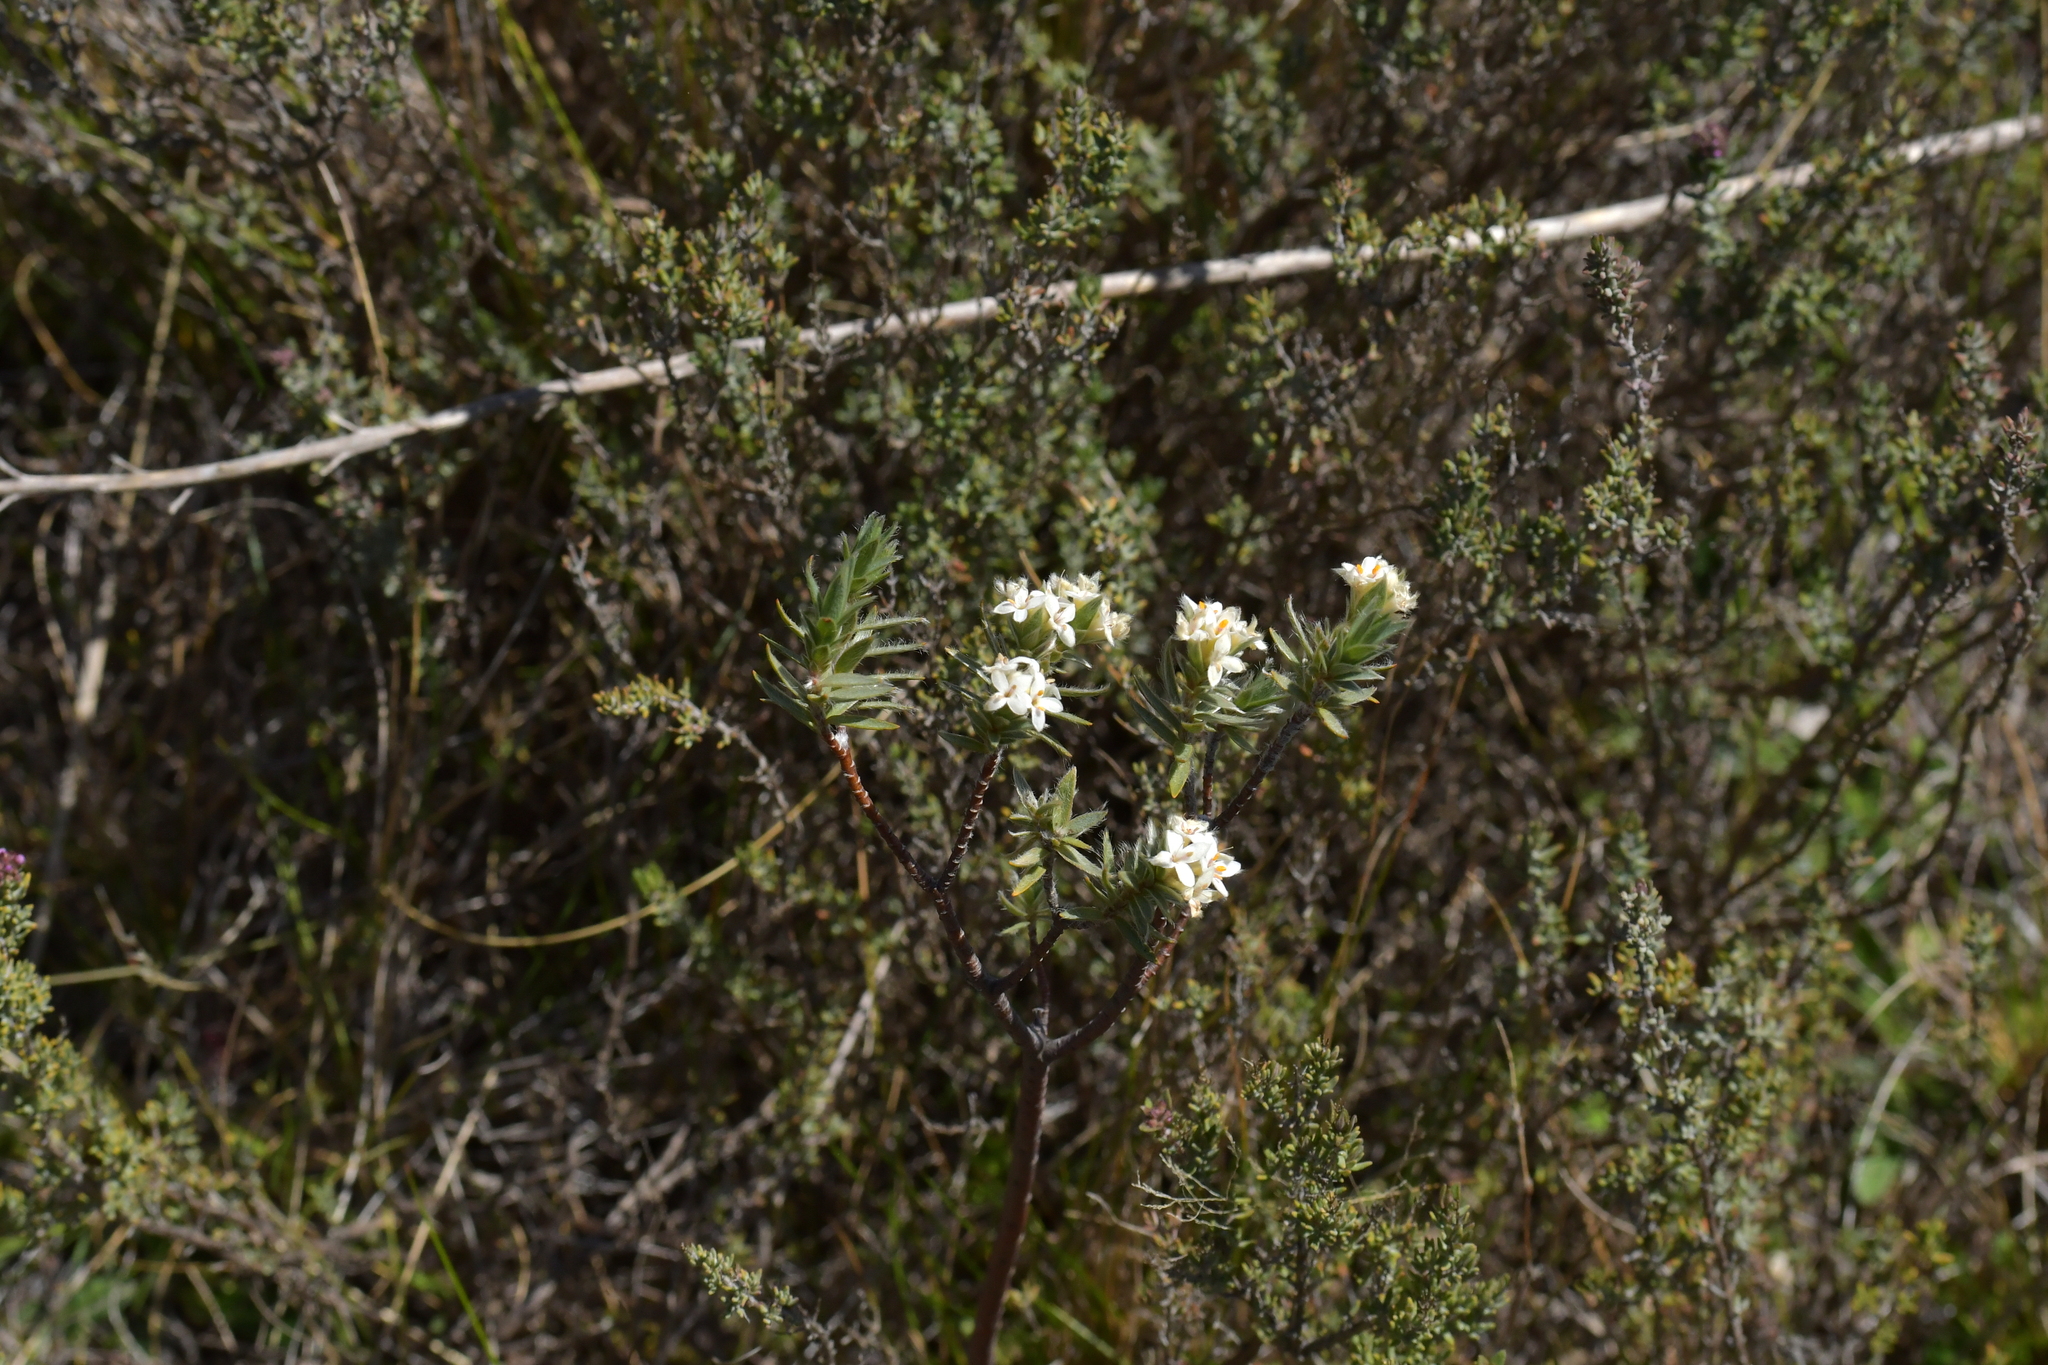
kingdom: Plantae
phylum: Tracheophyta
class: Magnoliopsida
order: Malvales
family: Thymelaeaceae
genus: Pimelea
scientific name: Pimelea aridula
